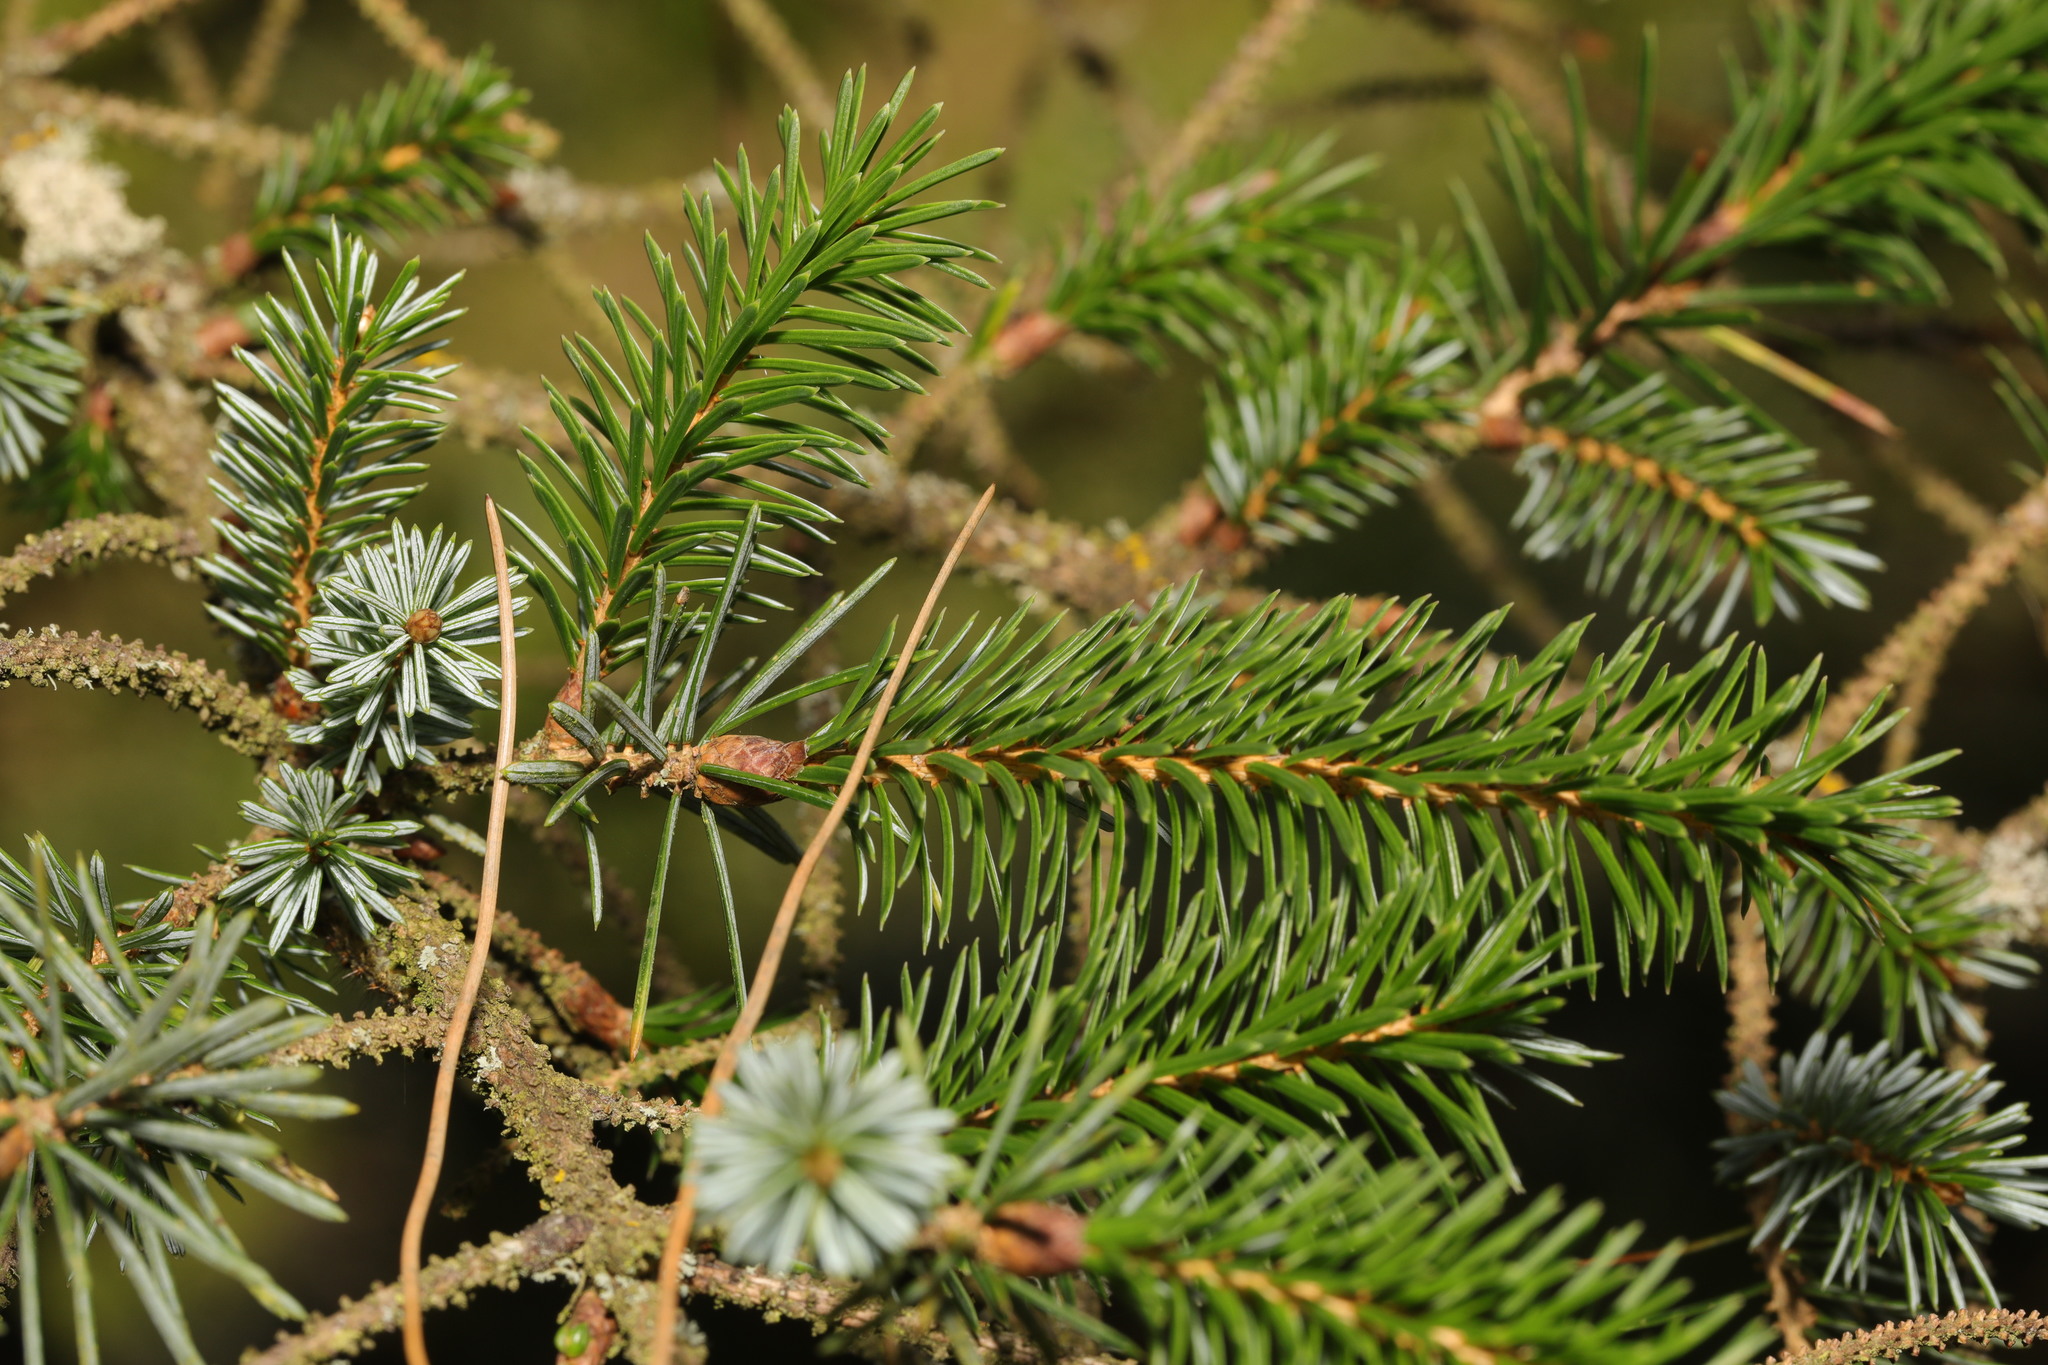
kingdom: Plantae
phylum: Tracheophyta
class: Pinopsida
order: Pinales
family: Pinaceae
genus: Picea
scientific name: Picea sitchensis
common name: Sitka spruce
